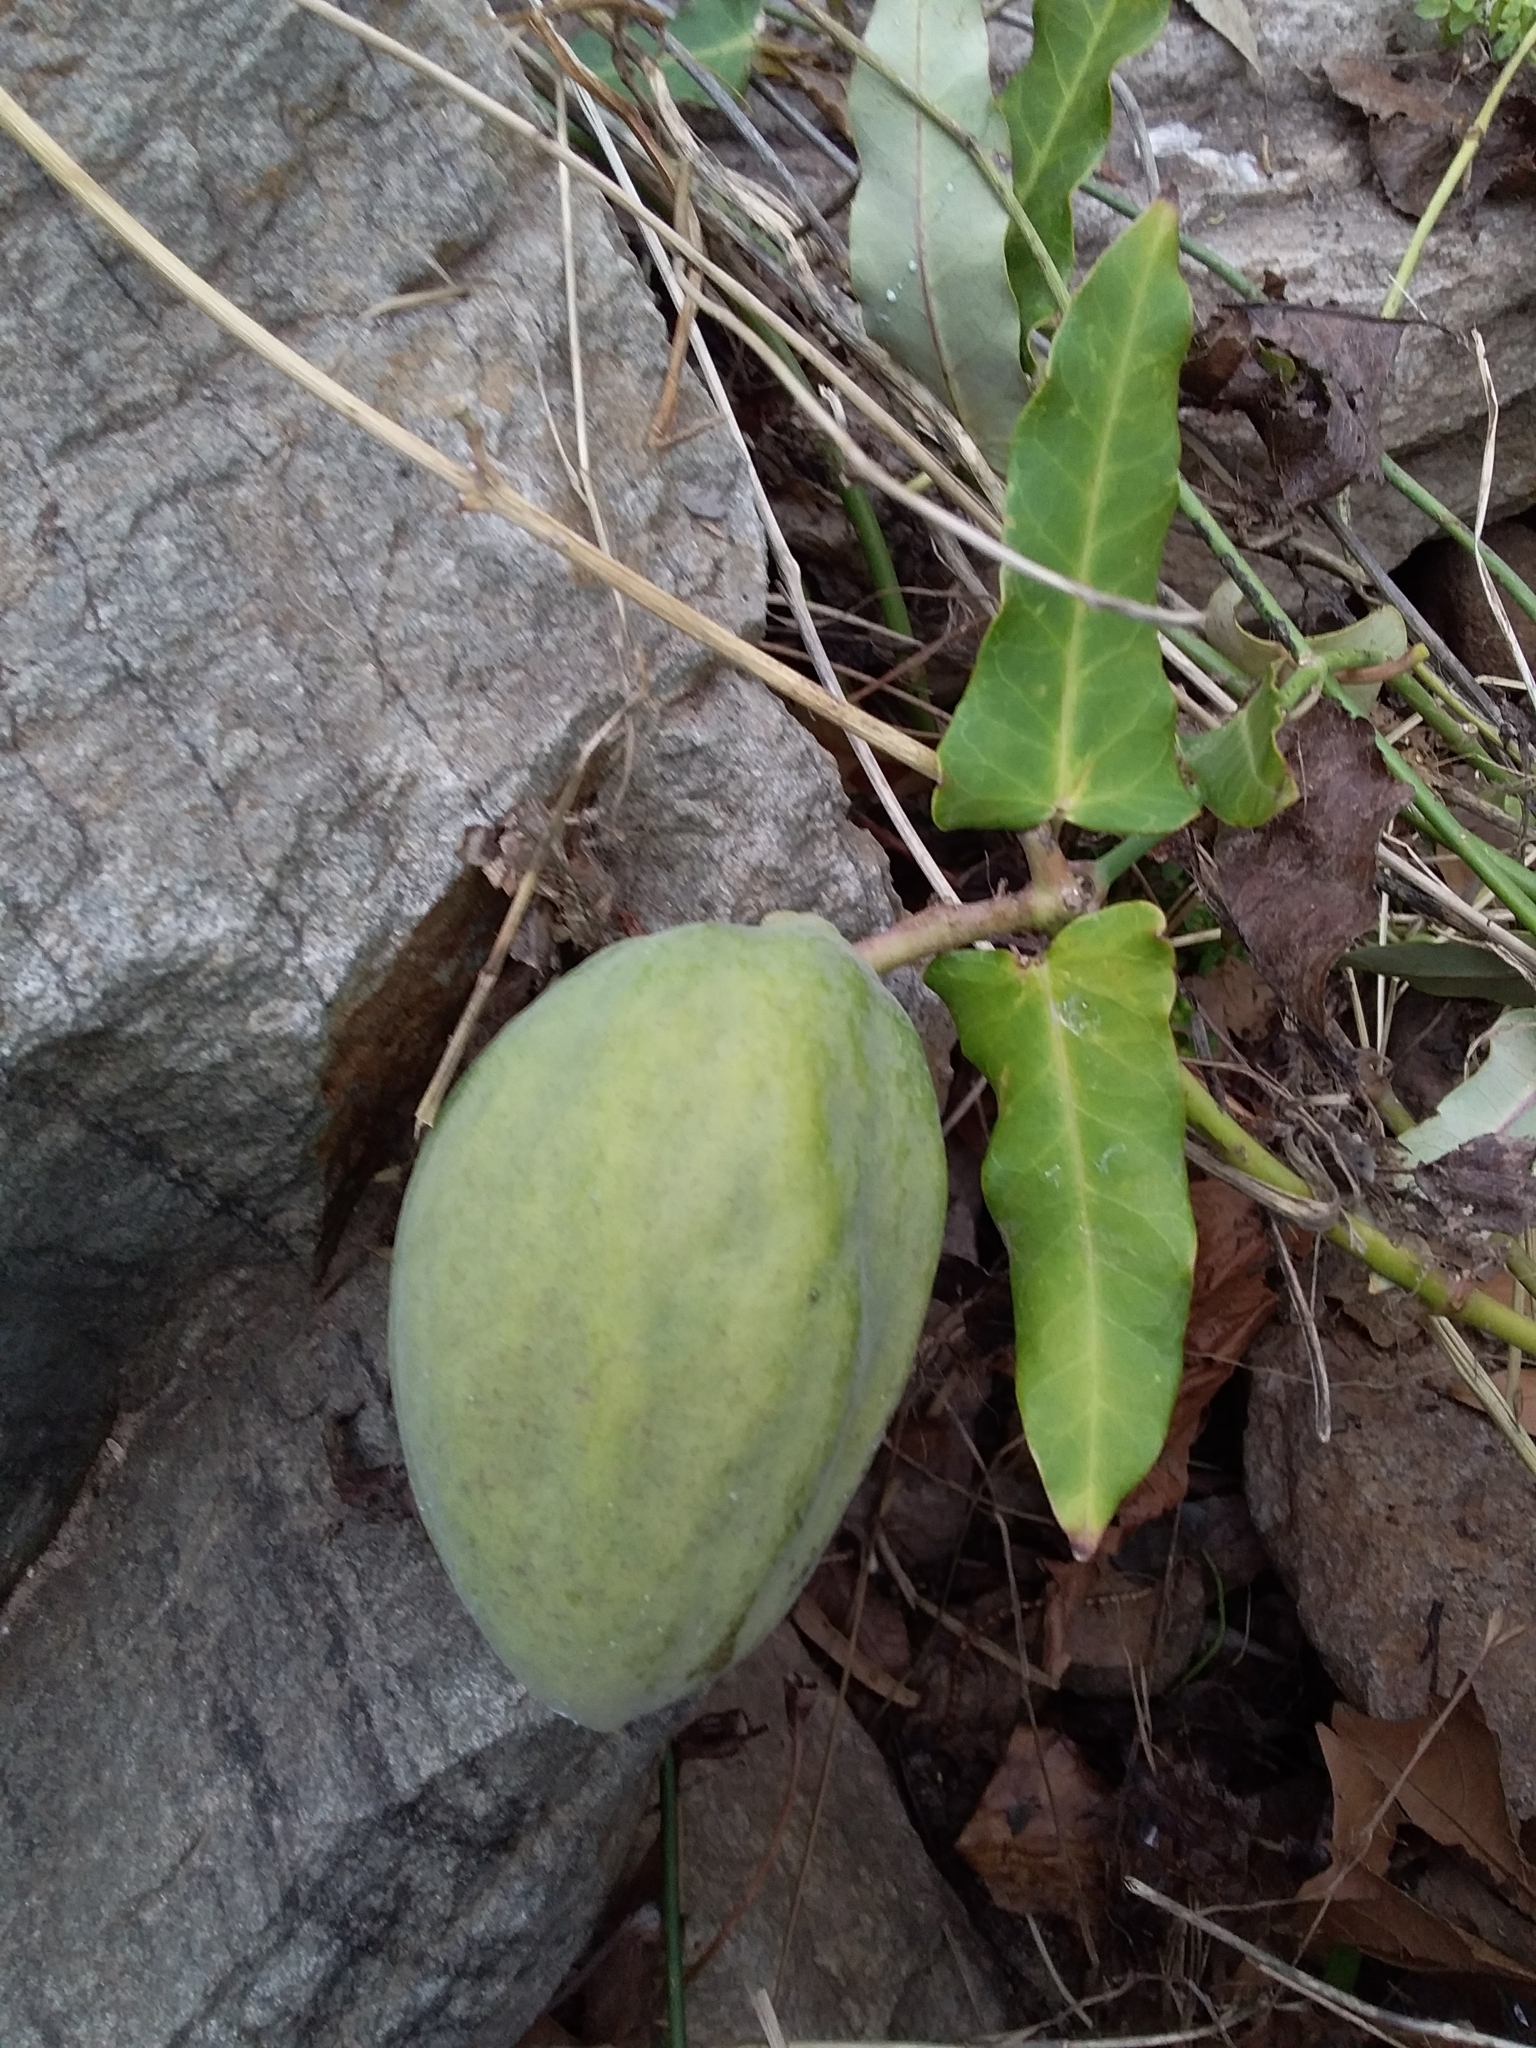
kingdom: Plantae
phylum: Tracheophyta
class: Magnoliopsida
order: Gentianales
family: Apocynaceae
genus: Araujia
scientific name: Araujia sericifera
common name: White bladderflower
